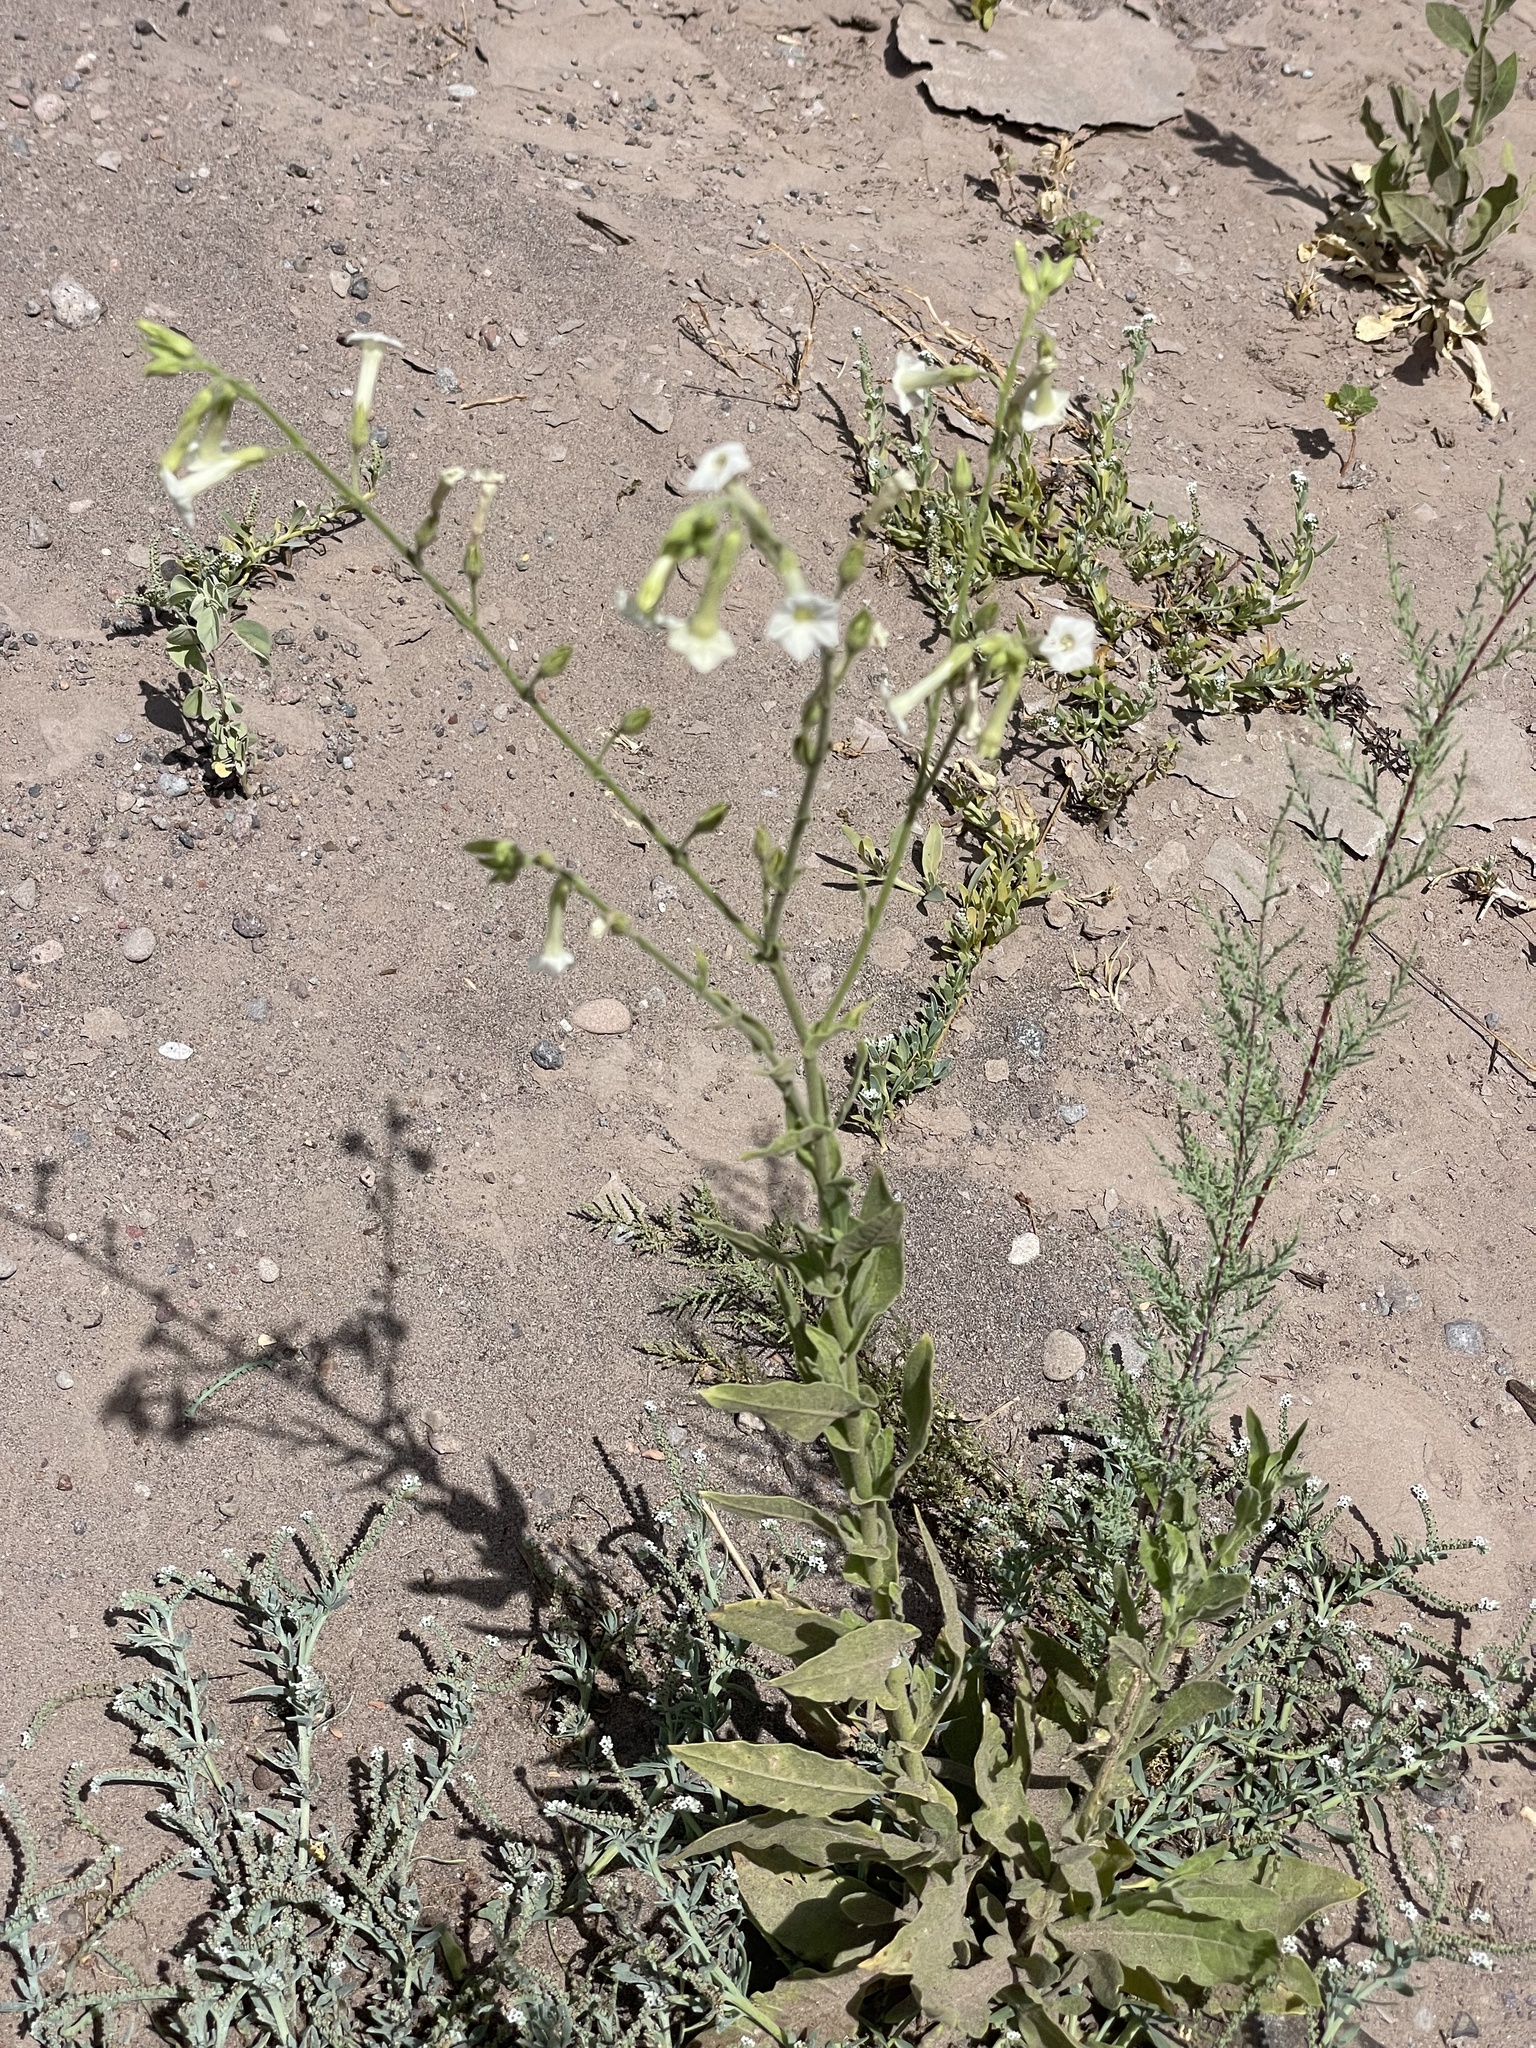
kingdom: Plantae
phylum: Tracheophyta
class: Magnoliopsida
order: Solanales
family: Solanaceae
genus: Nicotiana
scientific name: Nicotiana obtusifolia
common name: Desert tobacco
